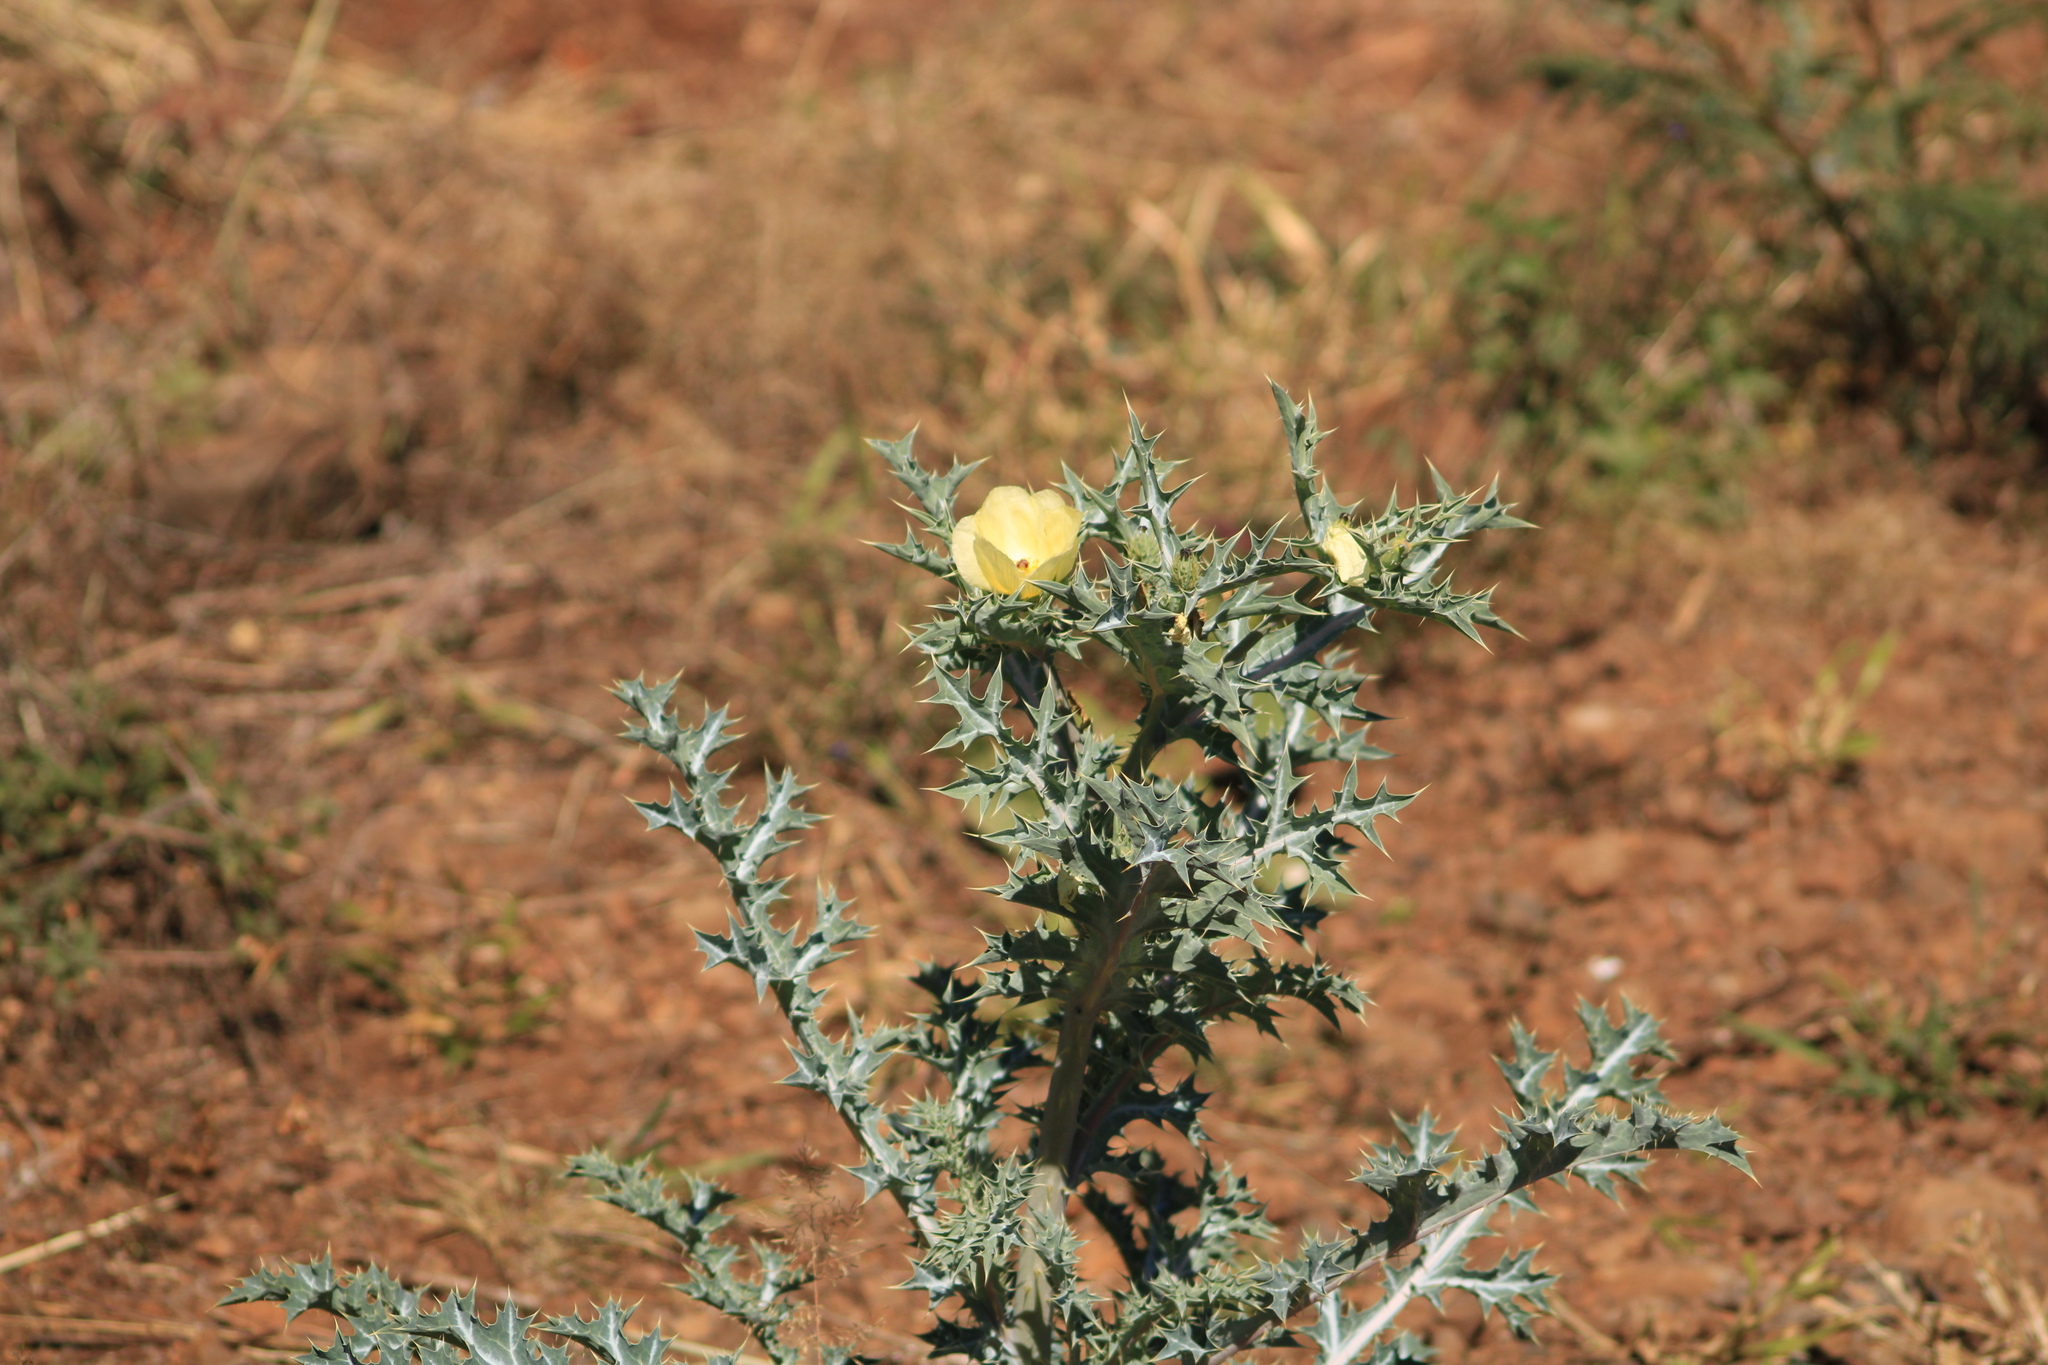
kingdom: Plantae
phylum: Tracheophyta
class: Magnoliopsida
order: Ranunculales
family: Papaveraceae
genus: Argemone
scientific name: Argemone mexicana
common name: Mexican poppy
